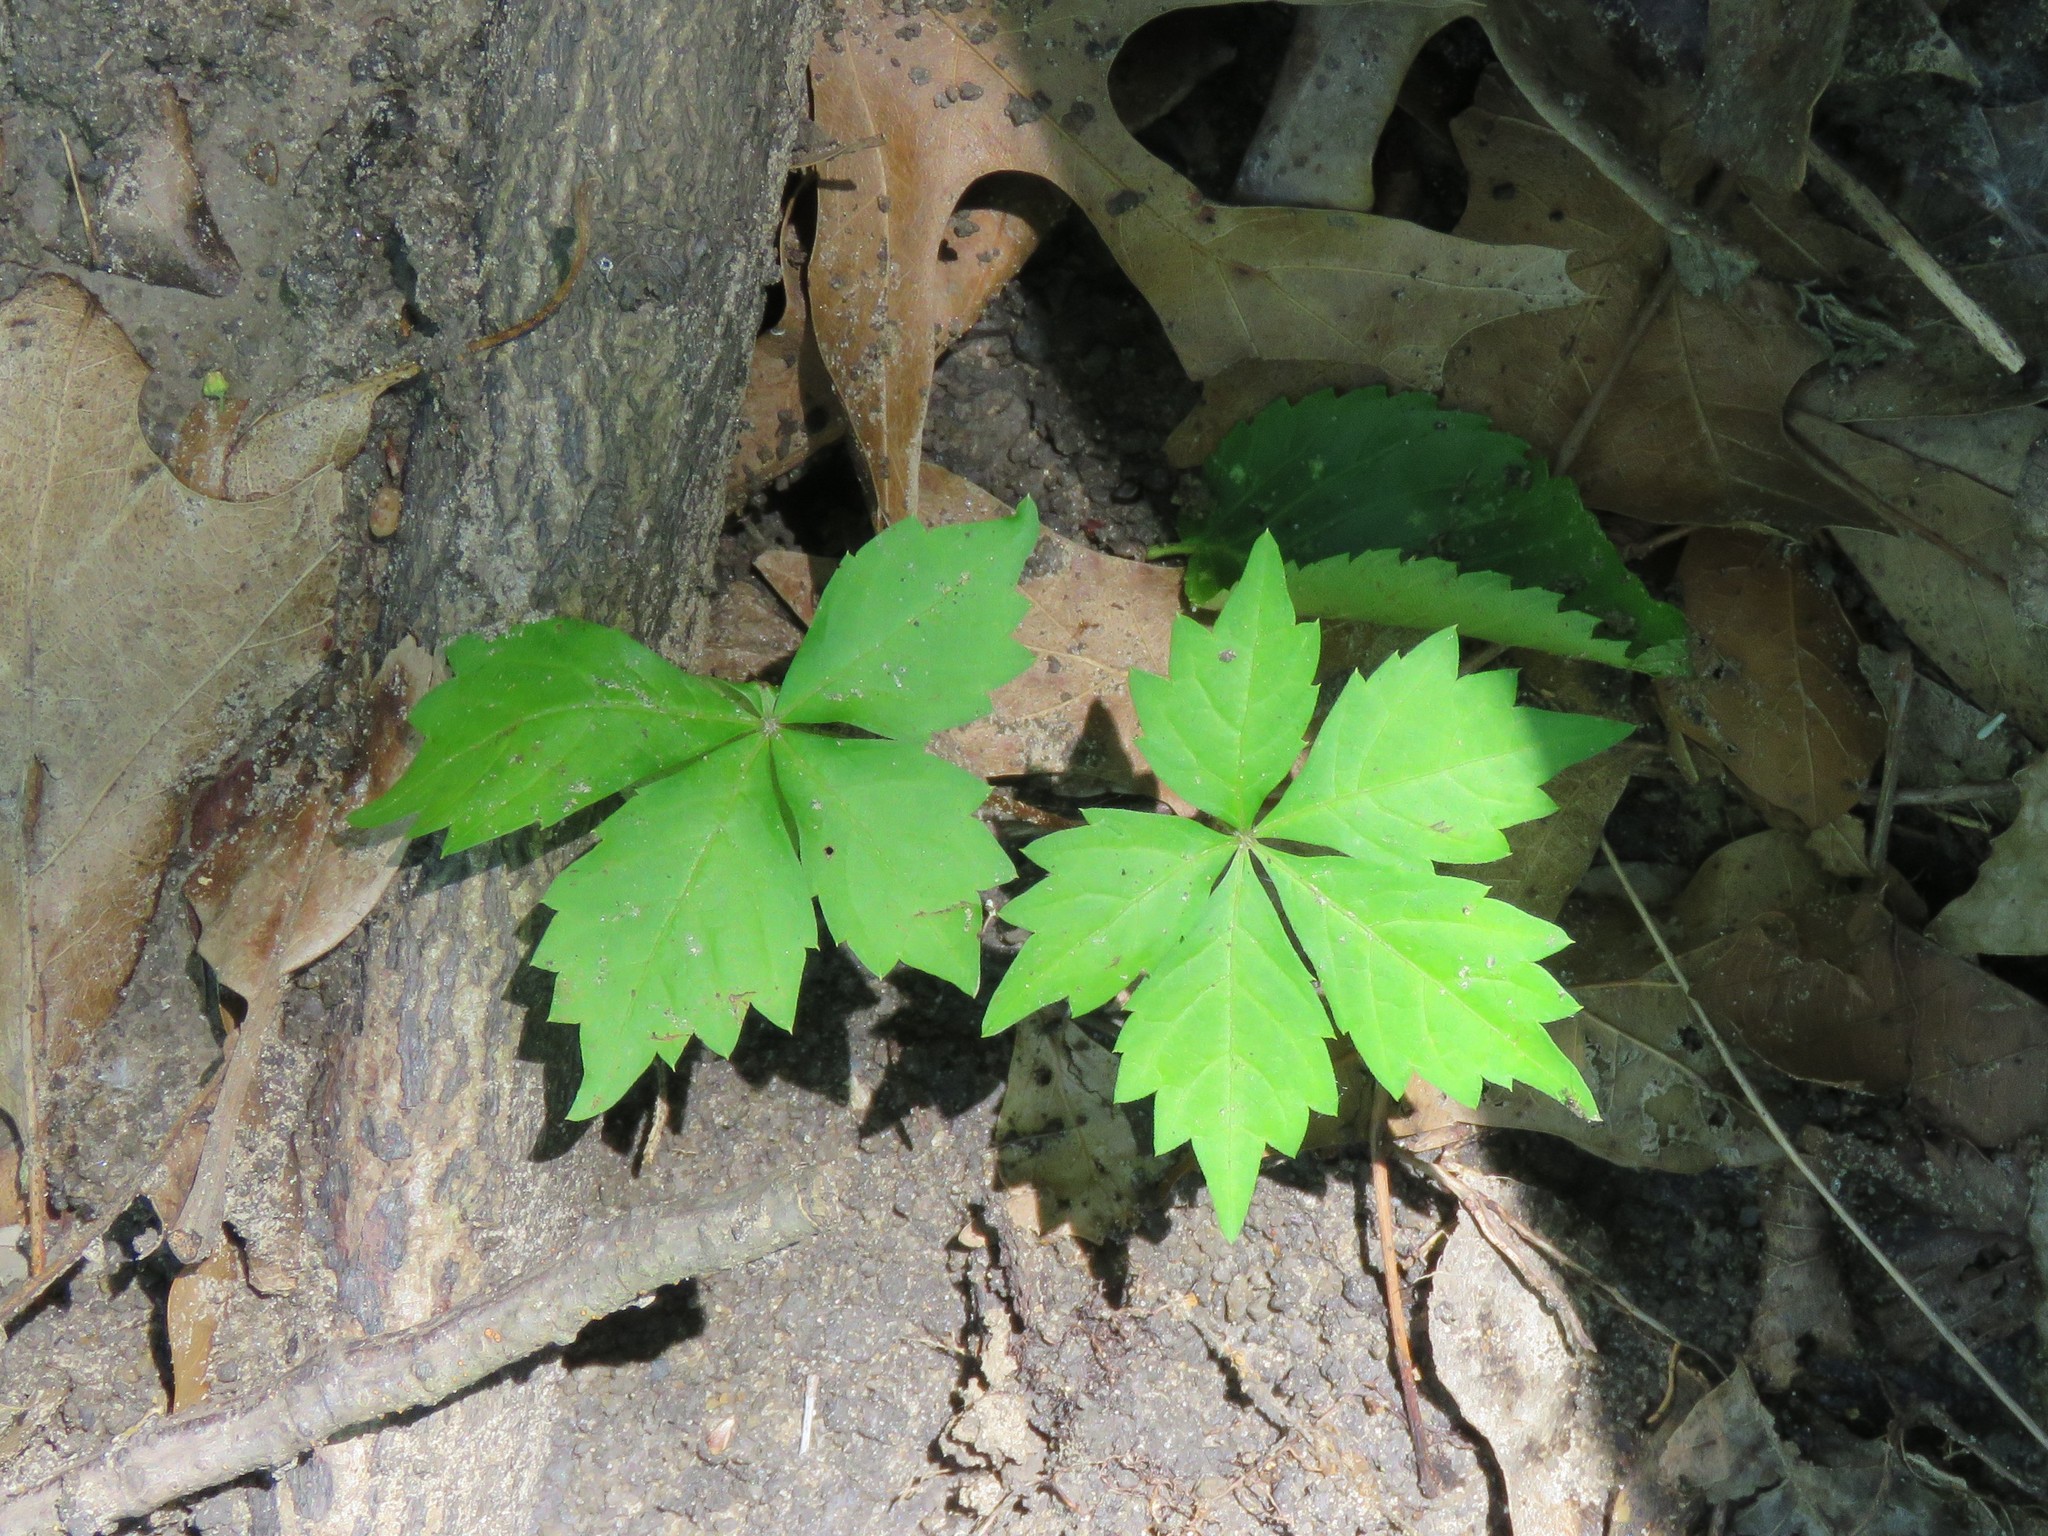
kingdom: Plantae
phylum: Tracheophyta
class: Magnoliopsida
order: Vitales
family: Vitaceae
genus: Parthenocissus
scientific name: Parthenocissus quinquefolia
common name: Virginia-creeper
